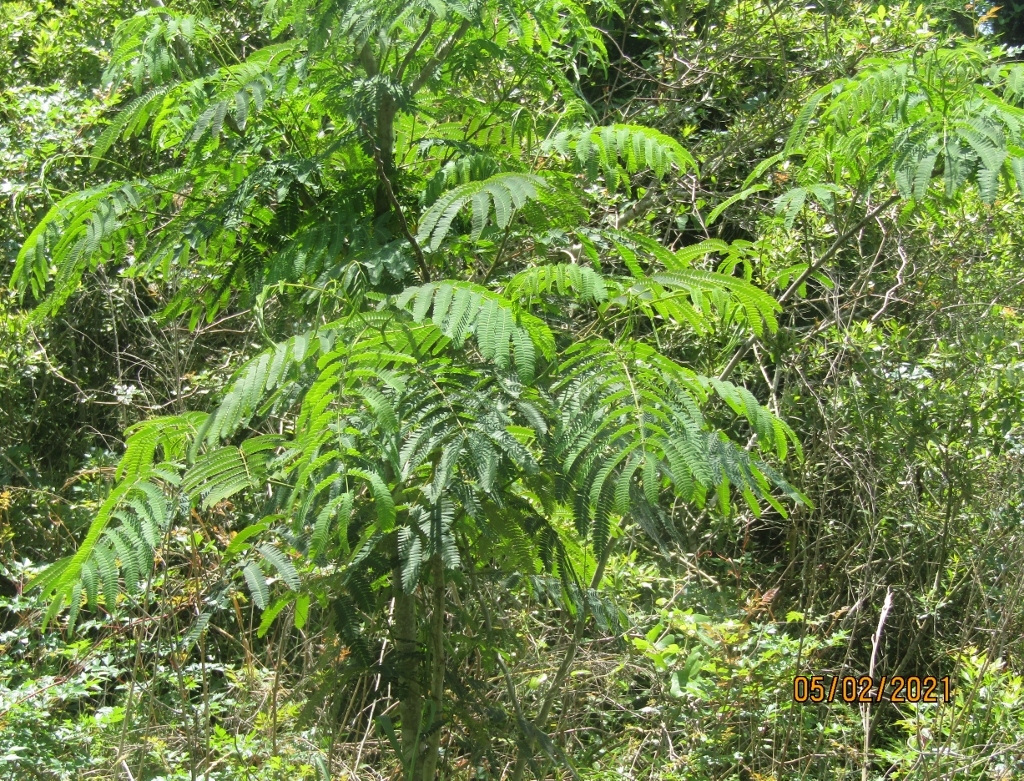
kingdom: Plantae
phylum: Tracheophyta
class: Magnoliopsida
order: Fabales
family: Fabaceae
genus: Albizia
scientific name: Albizia julibrissin
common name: Silktree
